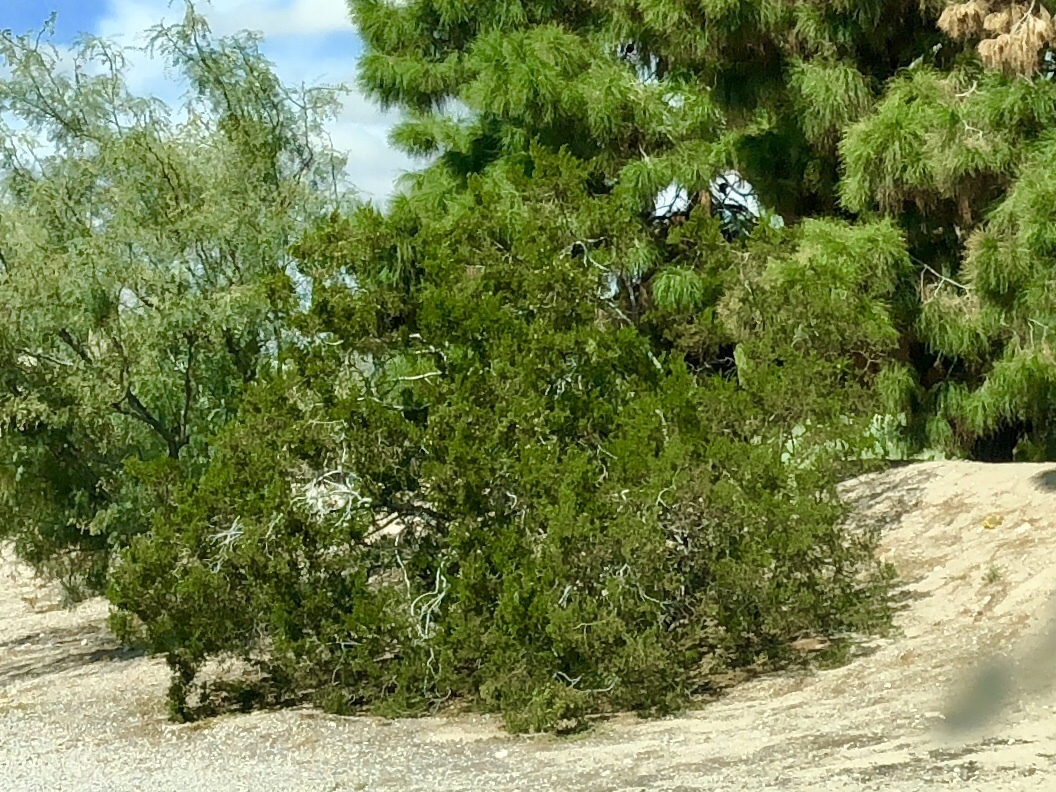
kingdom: Plantae
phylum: Tracheophyta
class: Magnoliopsida
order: Zygophyllales
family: Zygophyllaceae
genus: Larrea
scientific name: Larrea tridentata
